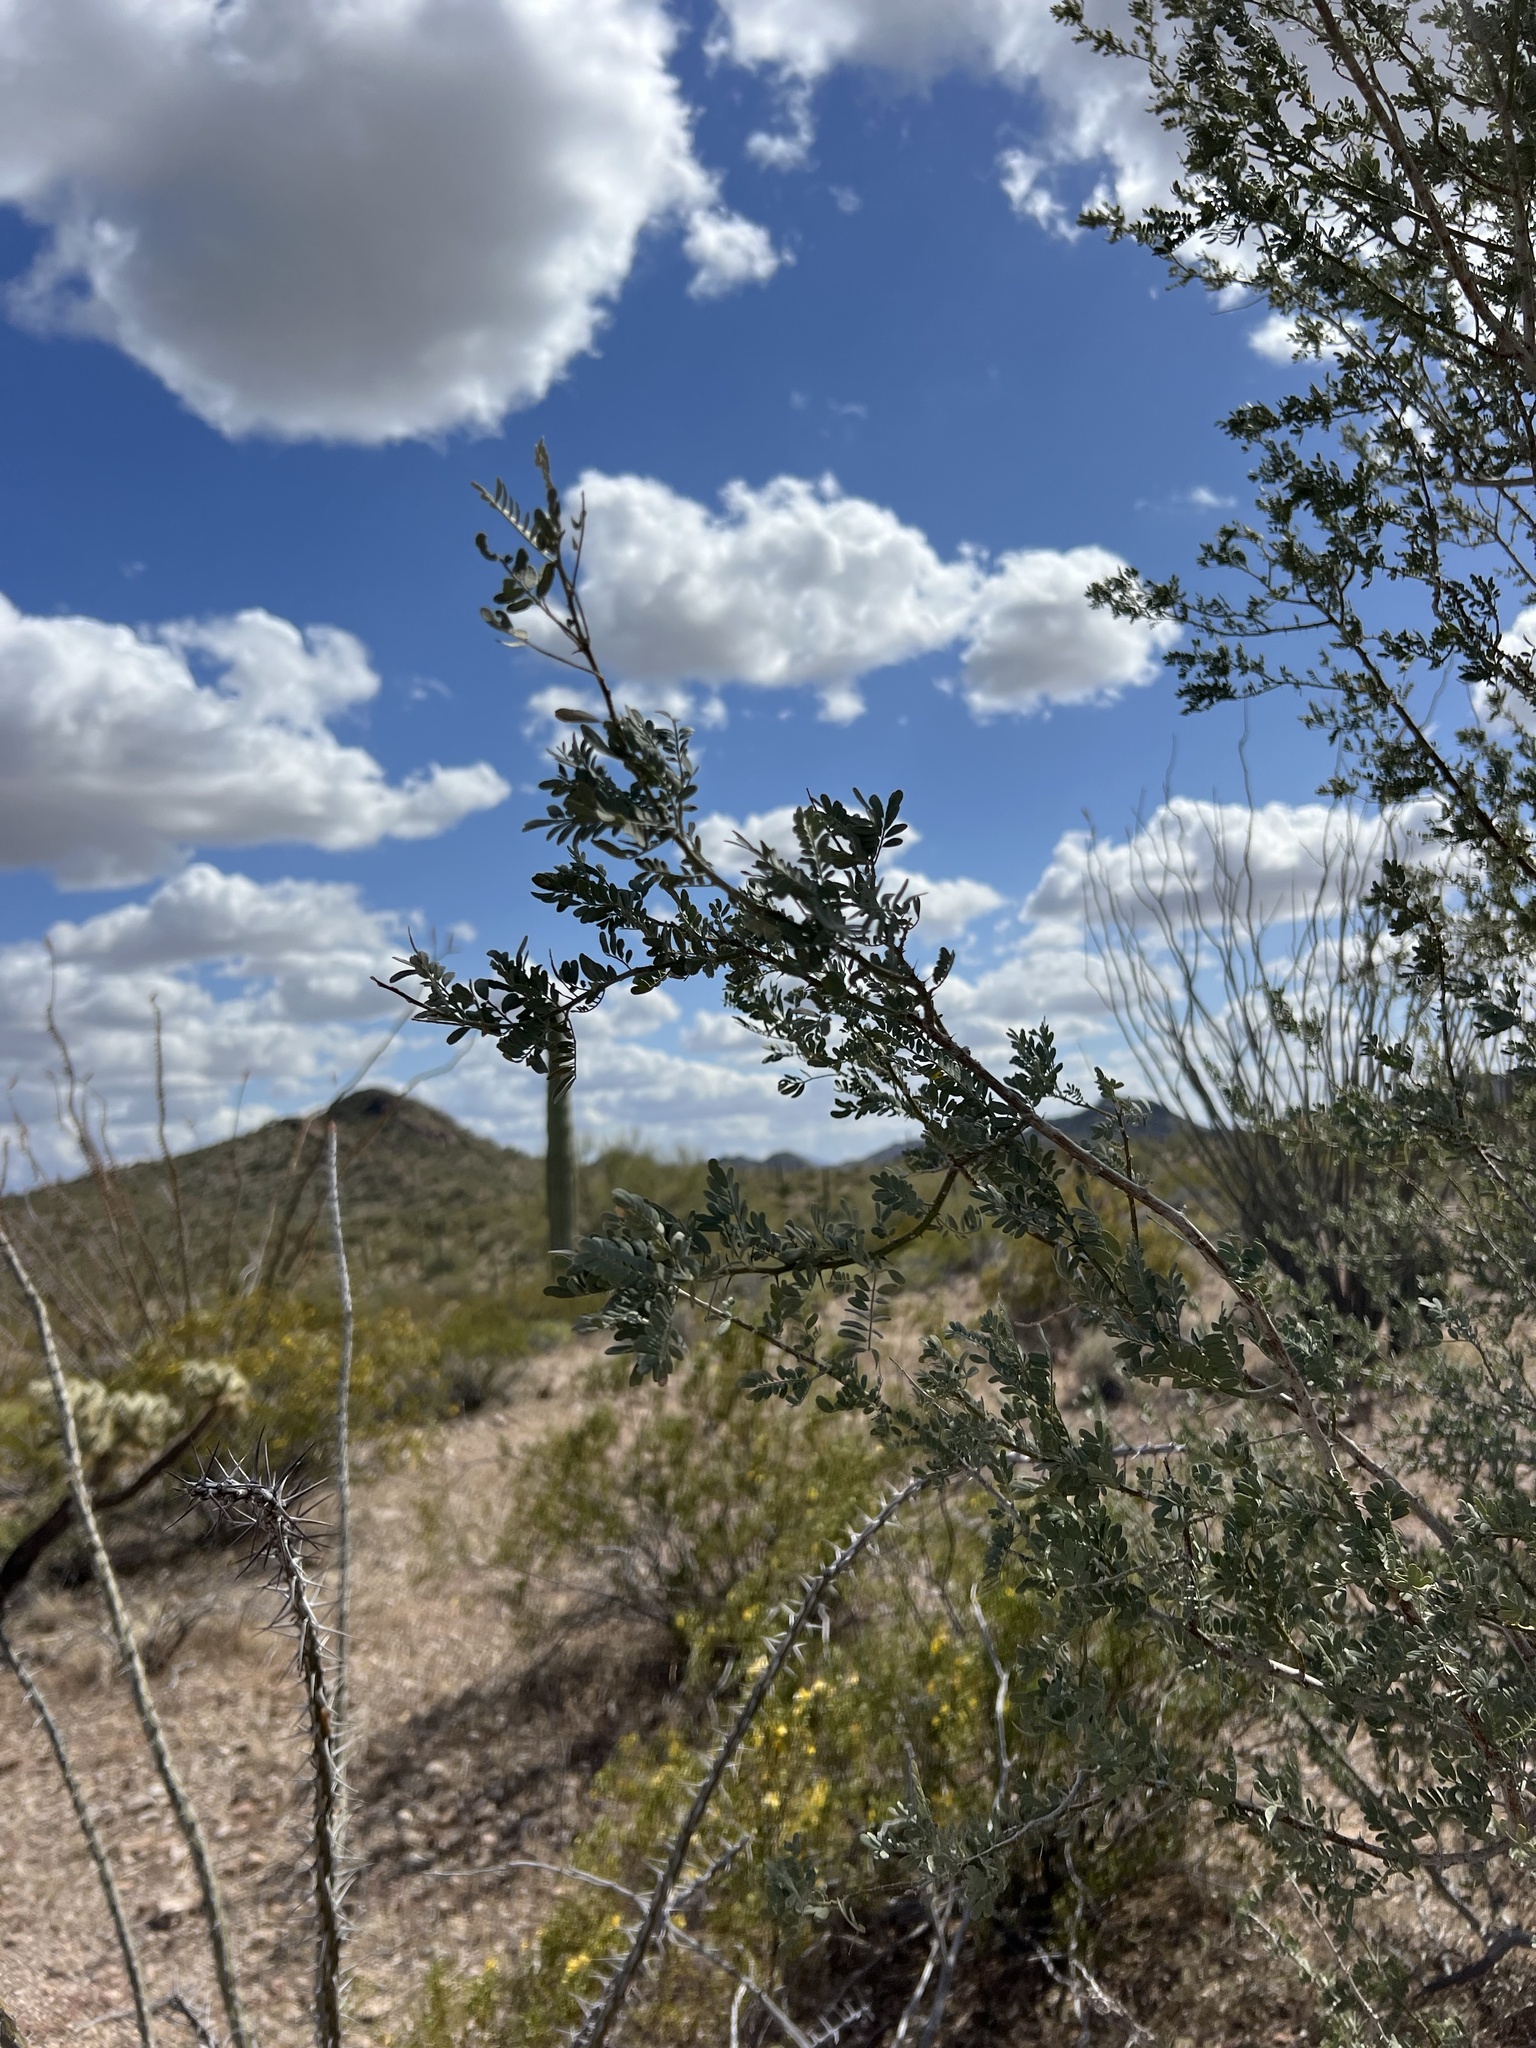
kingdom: Plantae
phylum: Tracheophyta
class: Magnoliopsida
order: Fabales
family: Fabaceae
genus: Olneya
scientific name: Olneya tesota
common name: Desert ironwood
